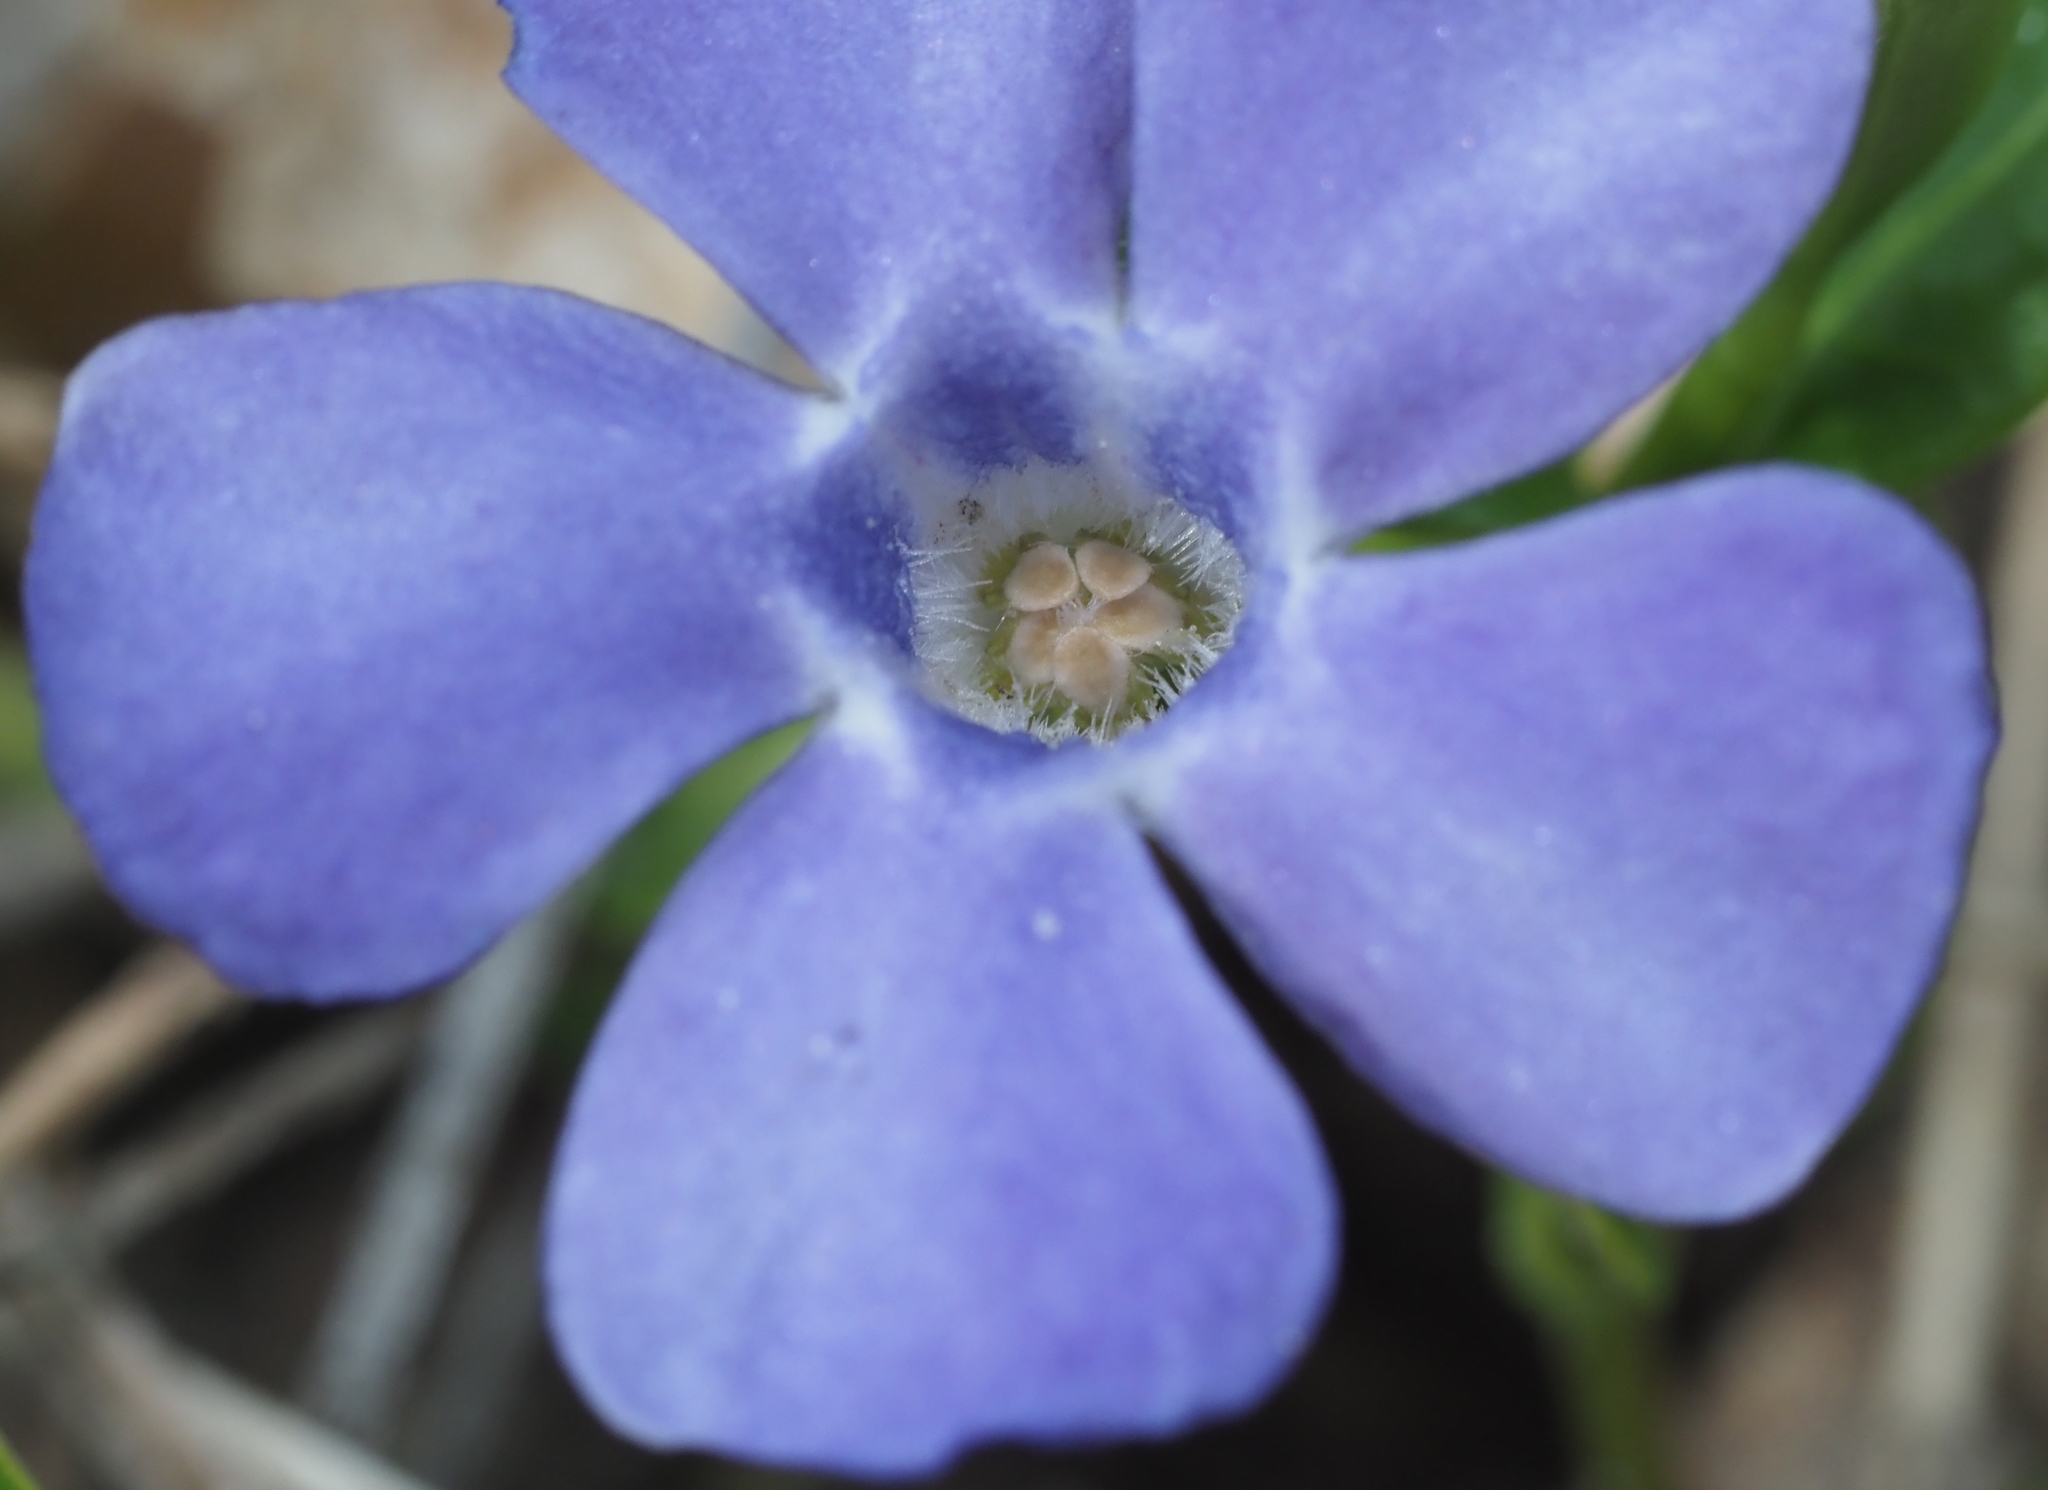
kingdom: Plantae
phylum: Tracheophyta
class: Magnoliopsida
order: Gentianales
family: Apocynaceae
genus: Vinca
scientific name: Vinca minor
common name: Lesser periwinkle
